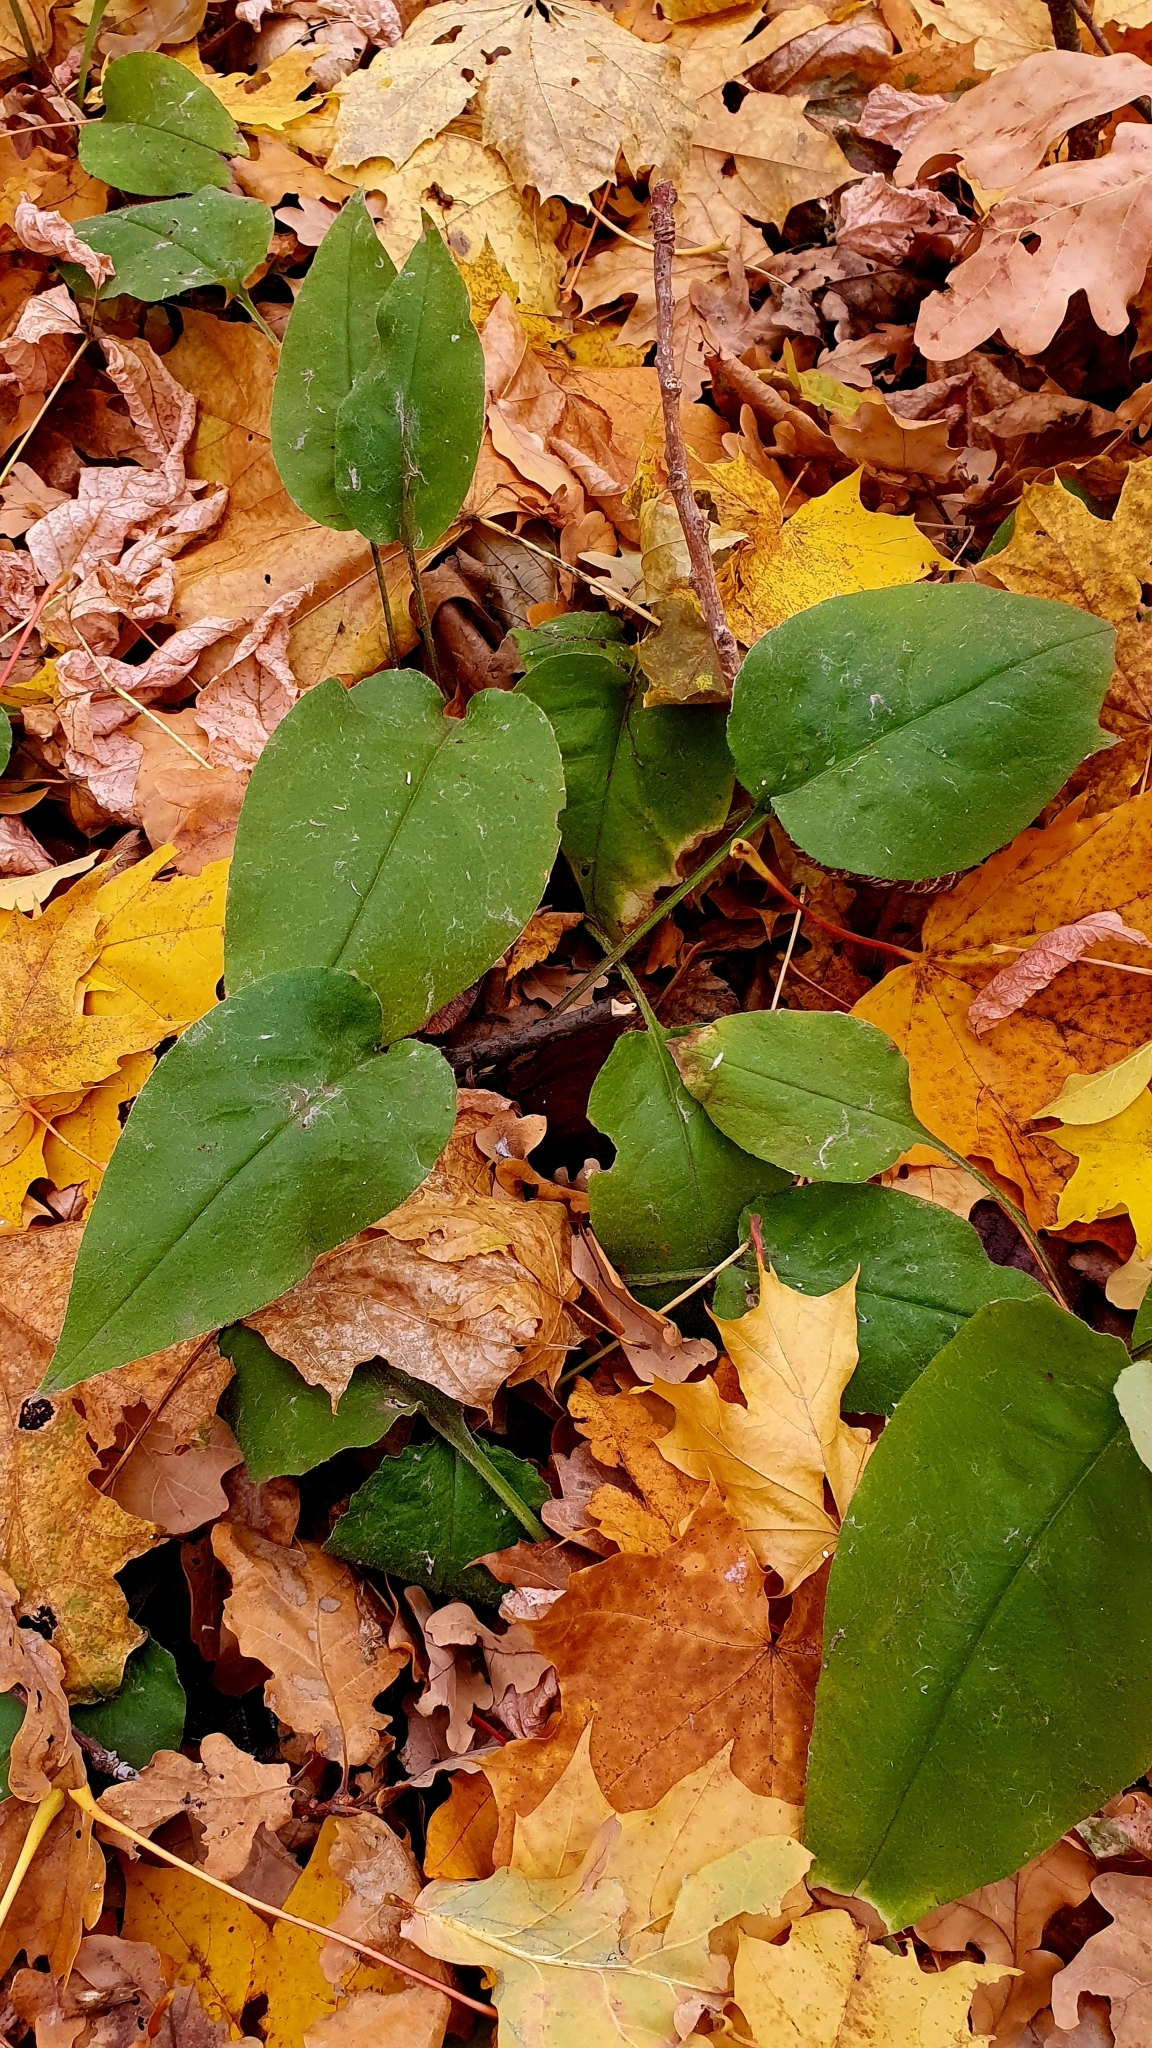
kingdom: Plantae
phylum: Tracheophyta
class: Magnoliopsida
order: Boraginales
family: Boraginaceae
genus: Pulmonaria
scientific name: Pulmonaria obscura
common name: Suffolk lungwort
